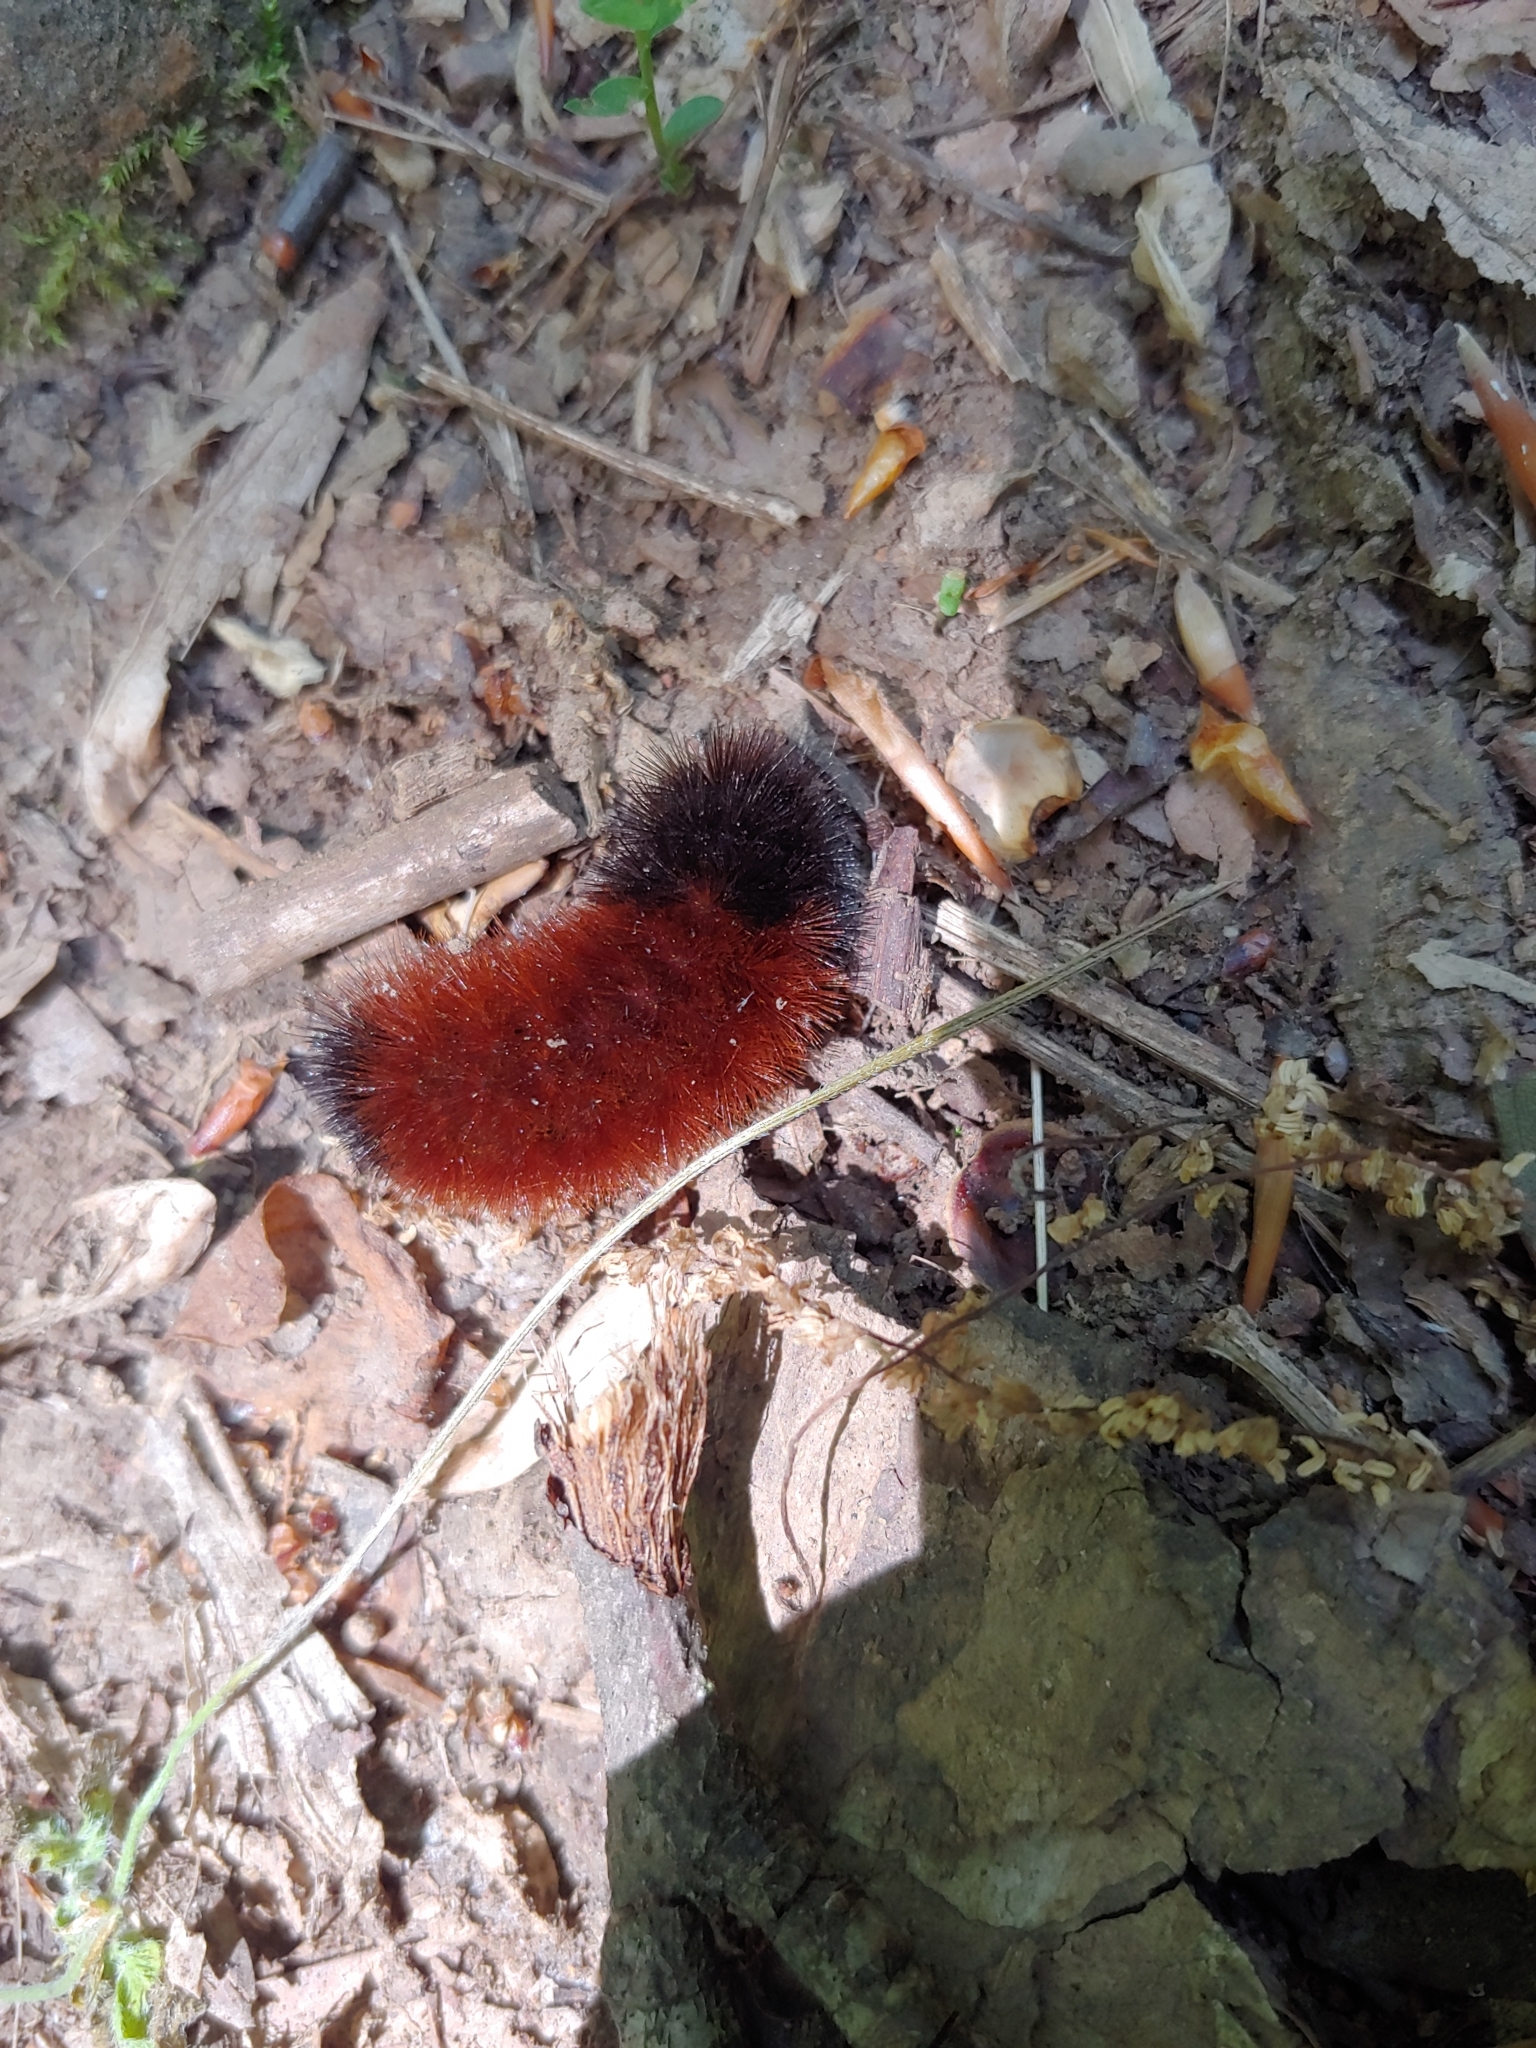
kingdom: Animalia
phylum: Arthropoda
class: Insecta
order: Lepidoptera
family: Erebidae
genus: Pyrrharctia
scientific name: Pyrrharctia isabella
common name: Isabella tiger moth
